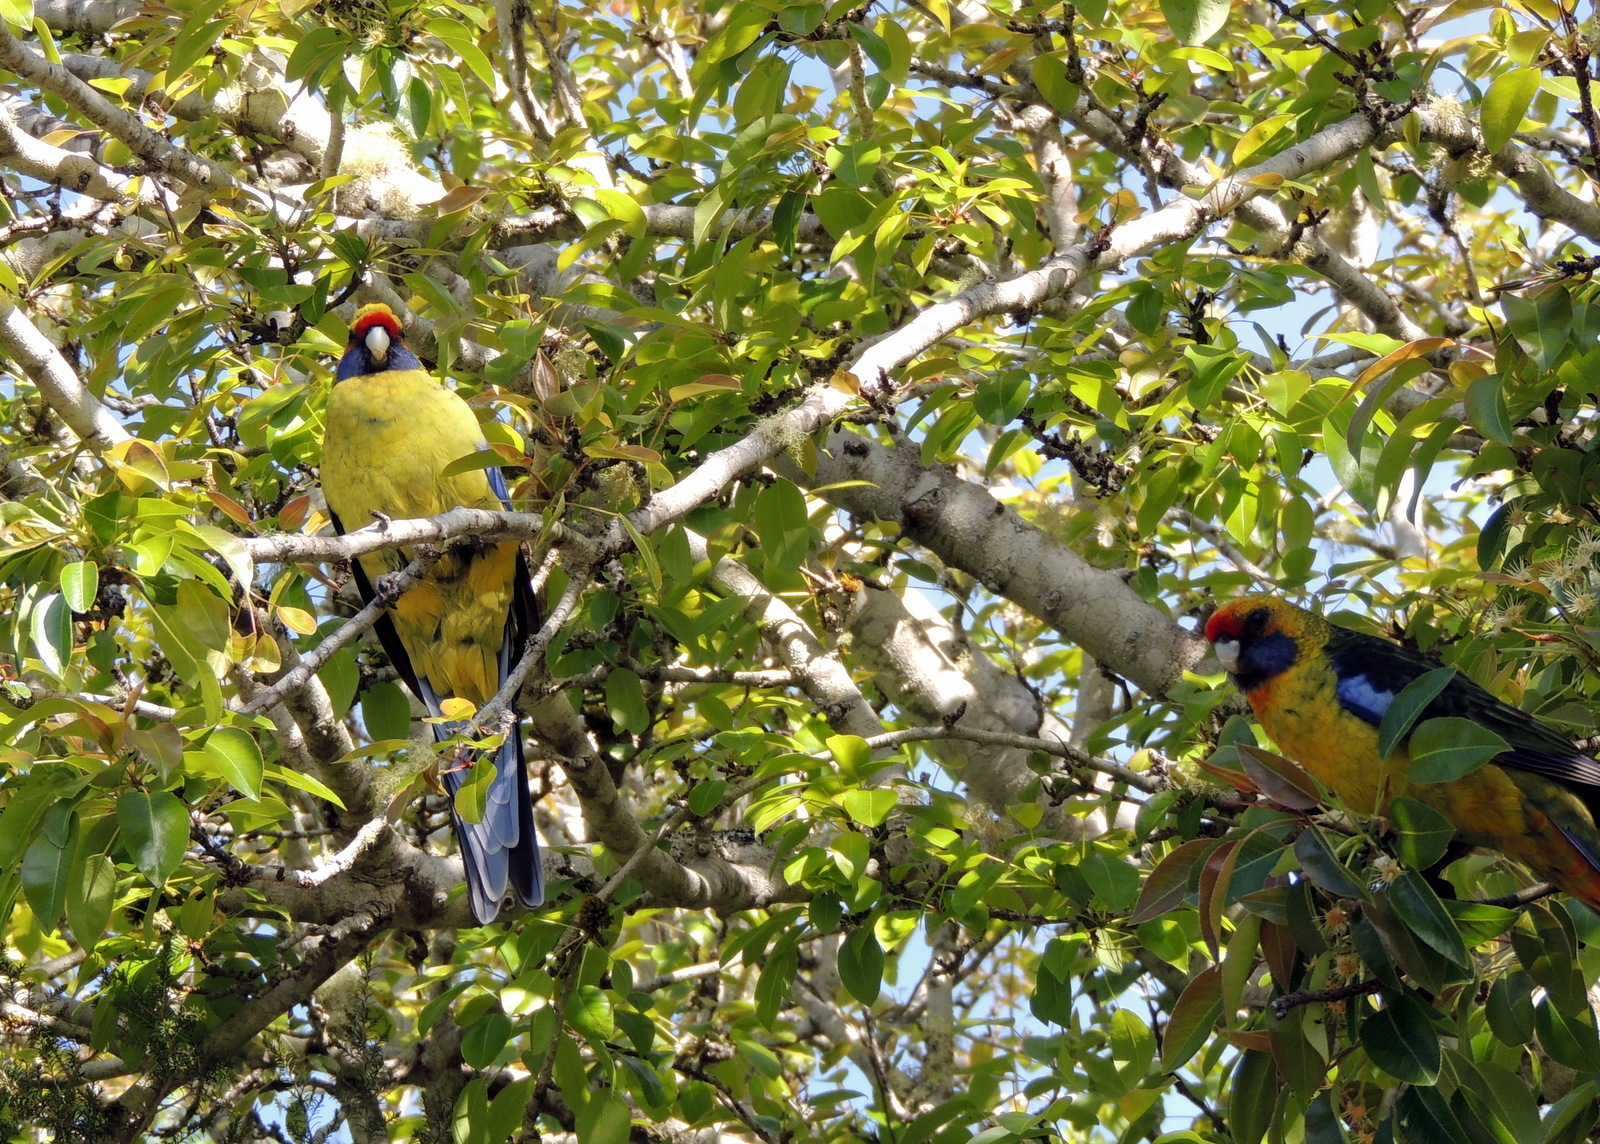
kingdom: Animalia
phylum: Chordata
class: Aves
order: Psittaciformes
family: Psittacidae
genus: Platycercus
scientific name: Platycercus caledonicus
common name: Green rosella
